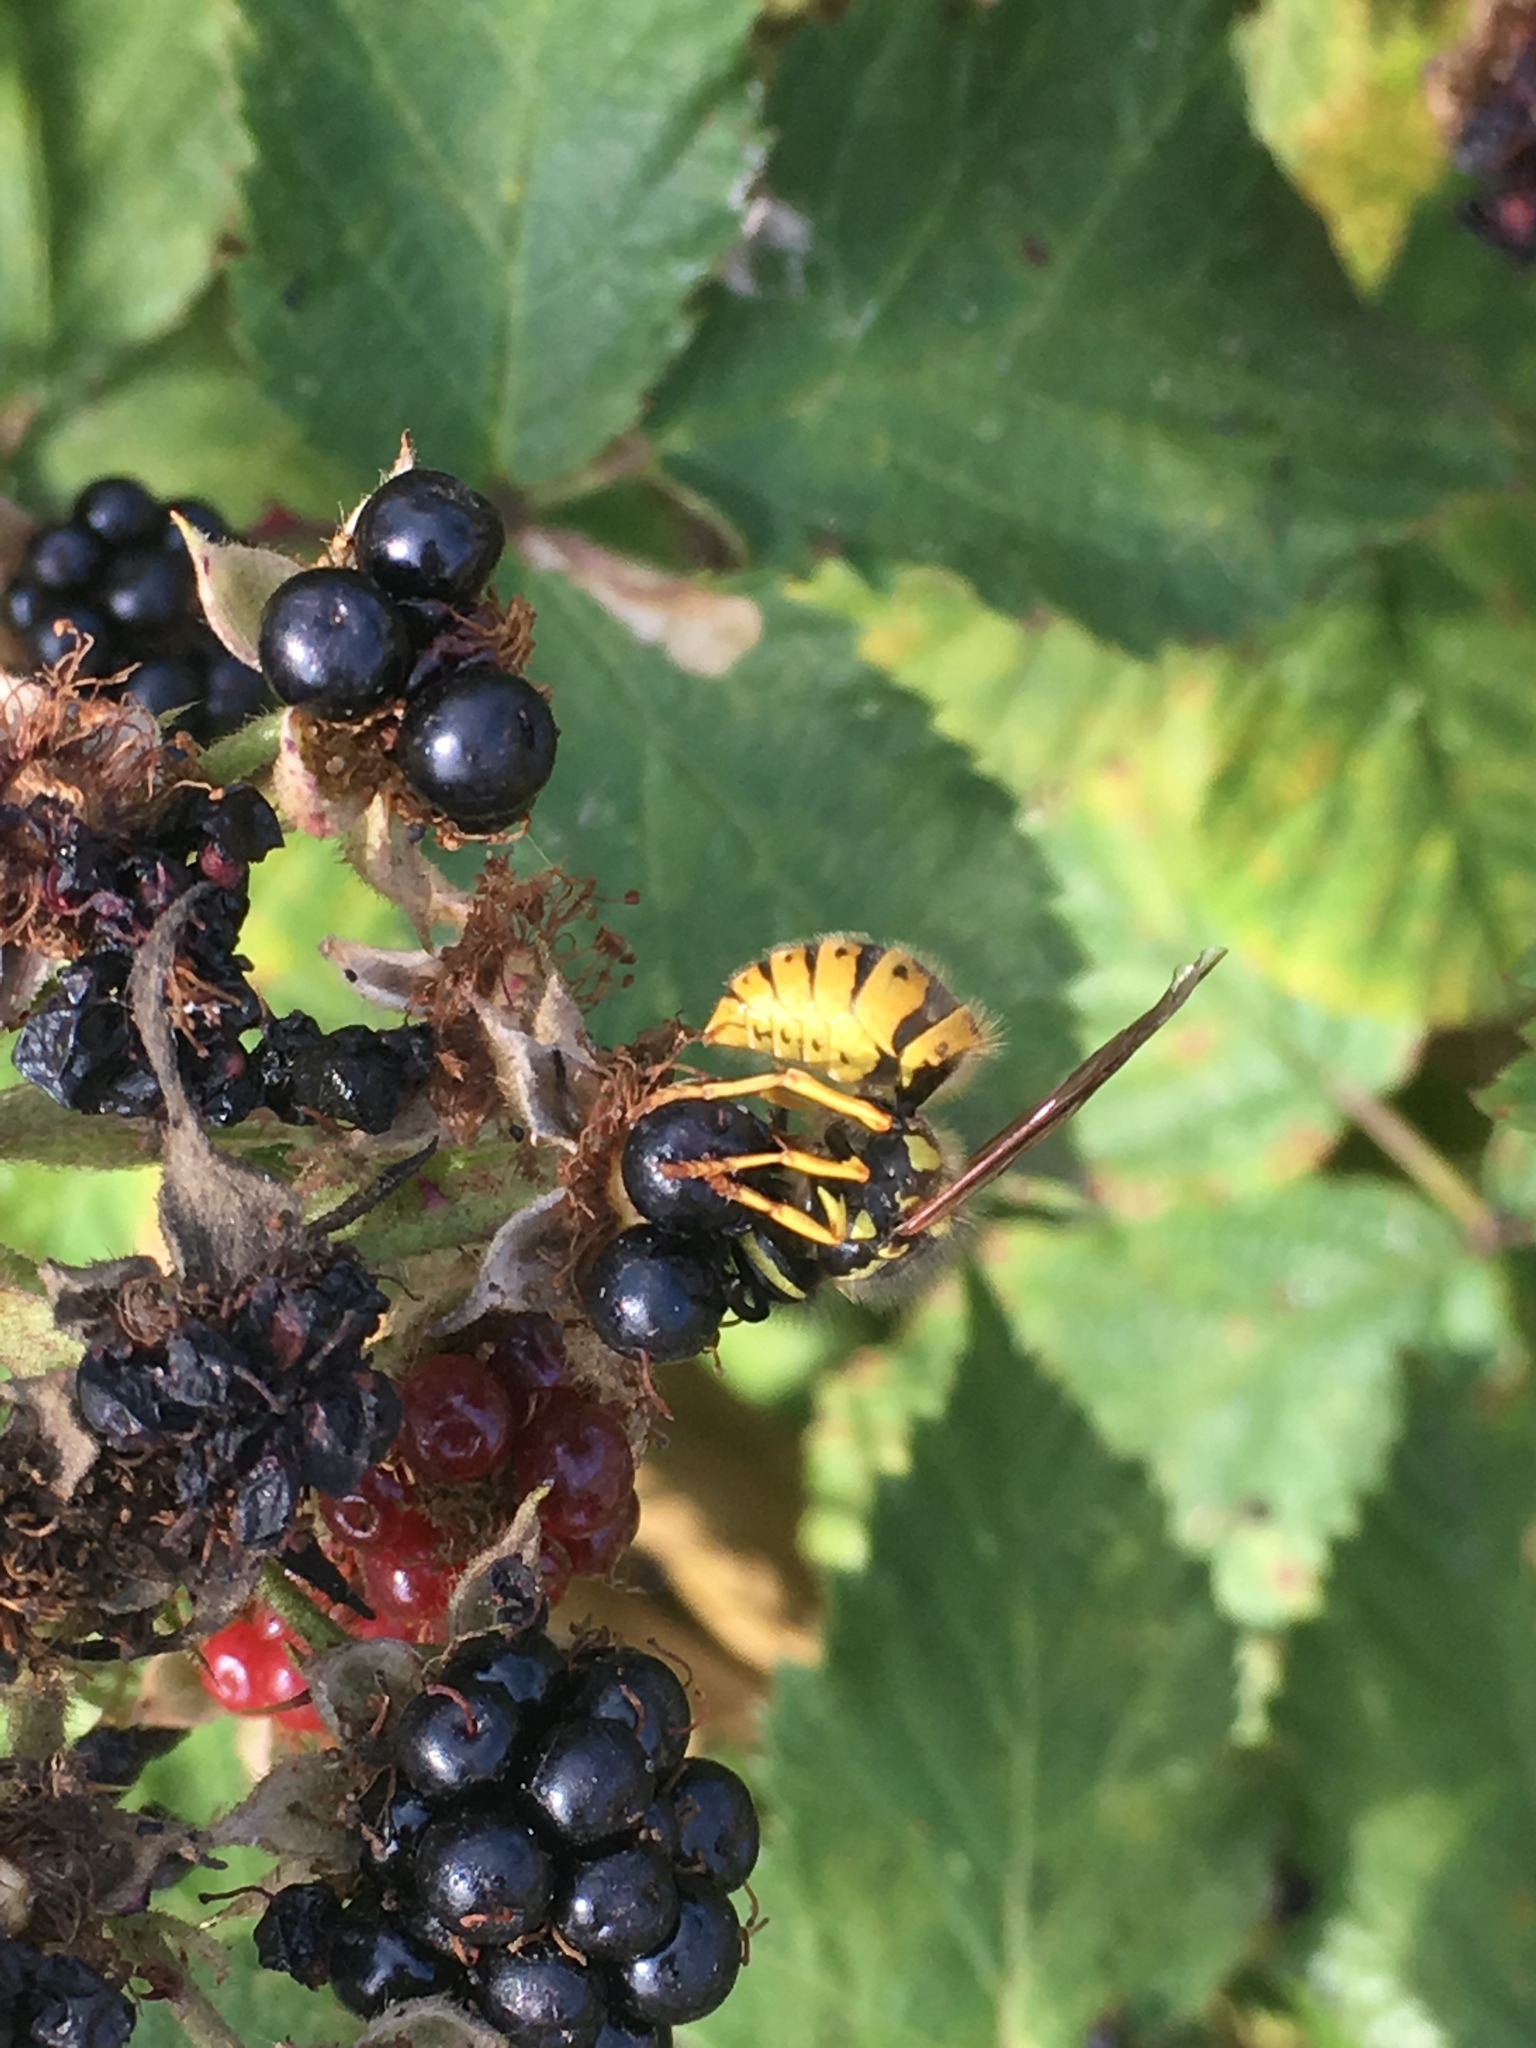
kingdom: Animalia
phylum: Arthropoda
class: Insecta
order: Hymenoptera
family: Vespidae
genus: Vespula
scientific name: Vespula germanica
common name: German wasp
